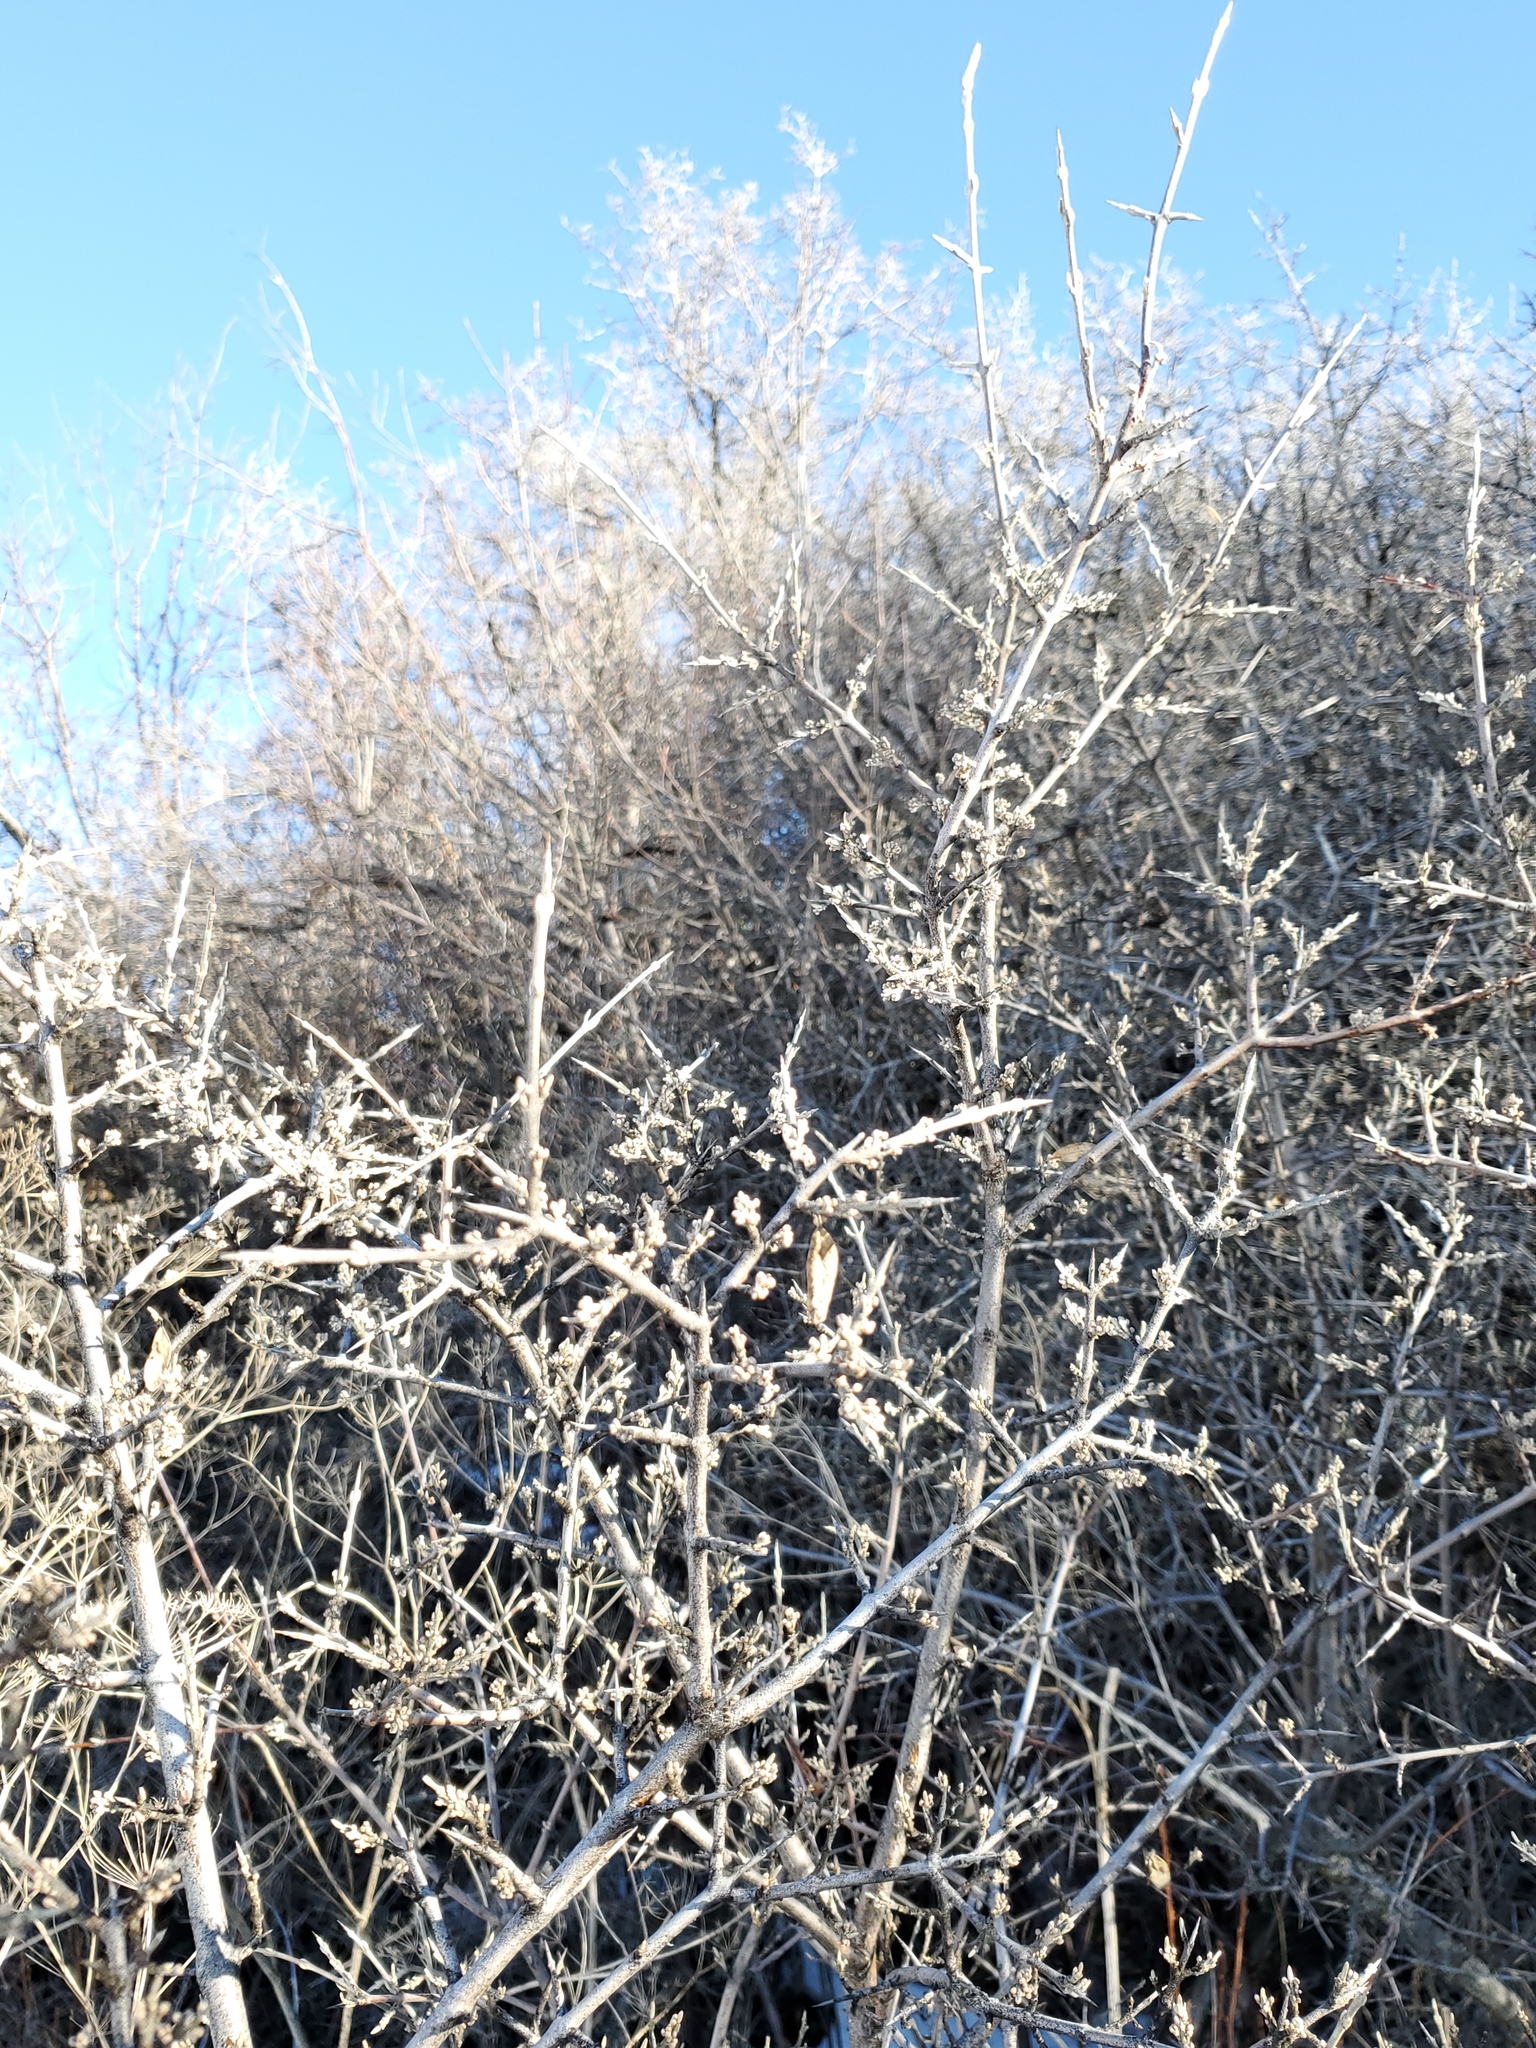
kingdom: Plantae
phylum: Tracheophyta
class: Magnoliopsida
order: Rosales
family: Elaeagnaceae
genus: Shepherdia
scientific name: Shepherdia argentea
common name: Silver buffaloberry
